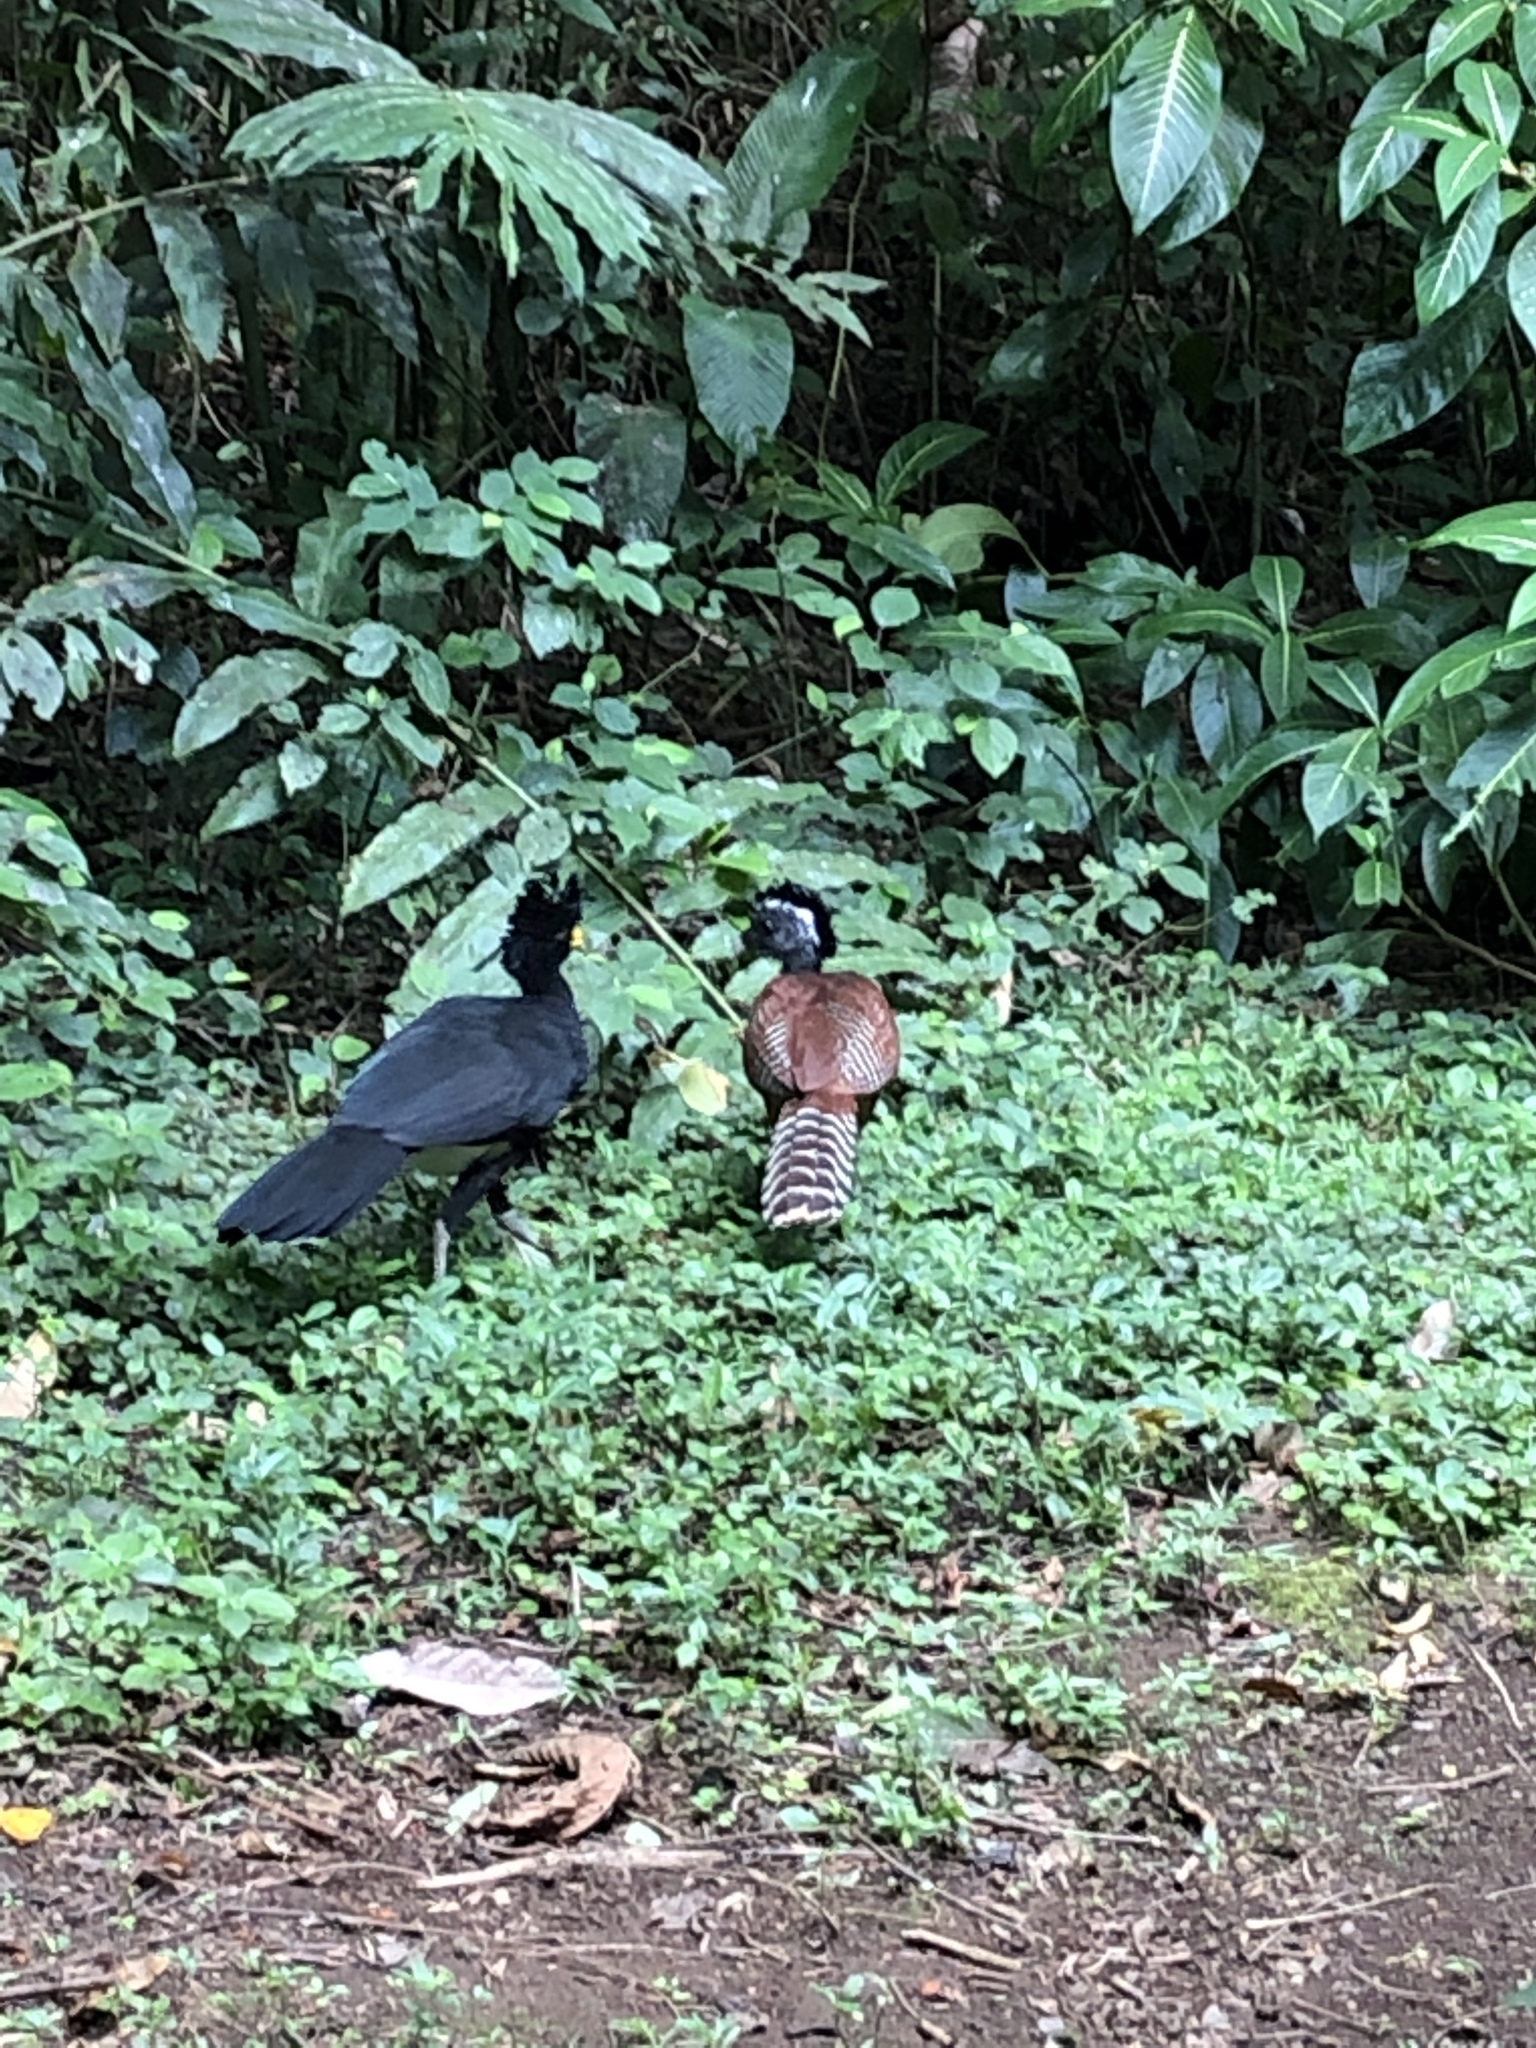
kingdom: Animalia
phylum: Chordata
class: Aves
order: Galliformes
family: Cracidae
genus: Crax
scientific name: Crax rubra
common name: Great curassow
